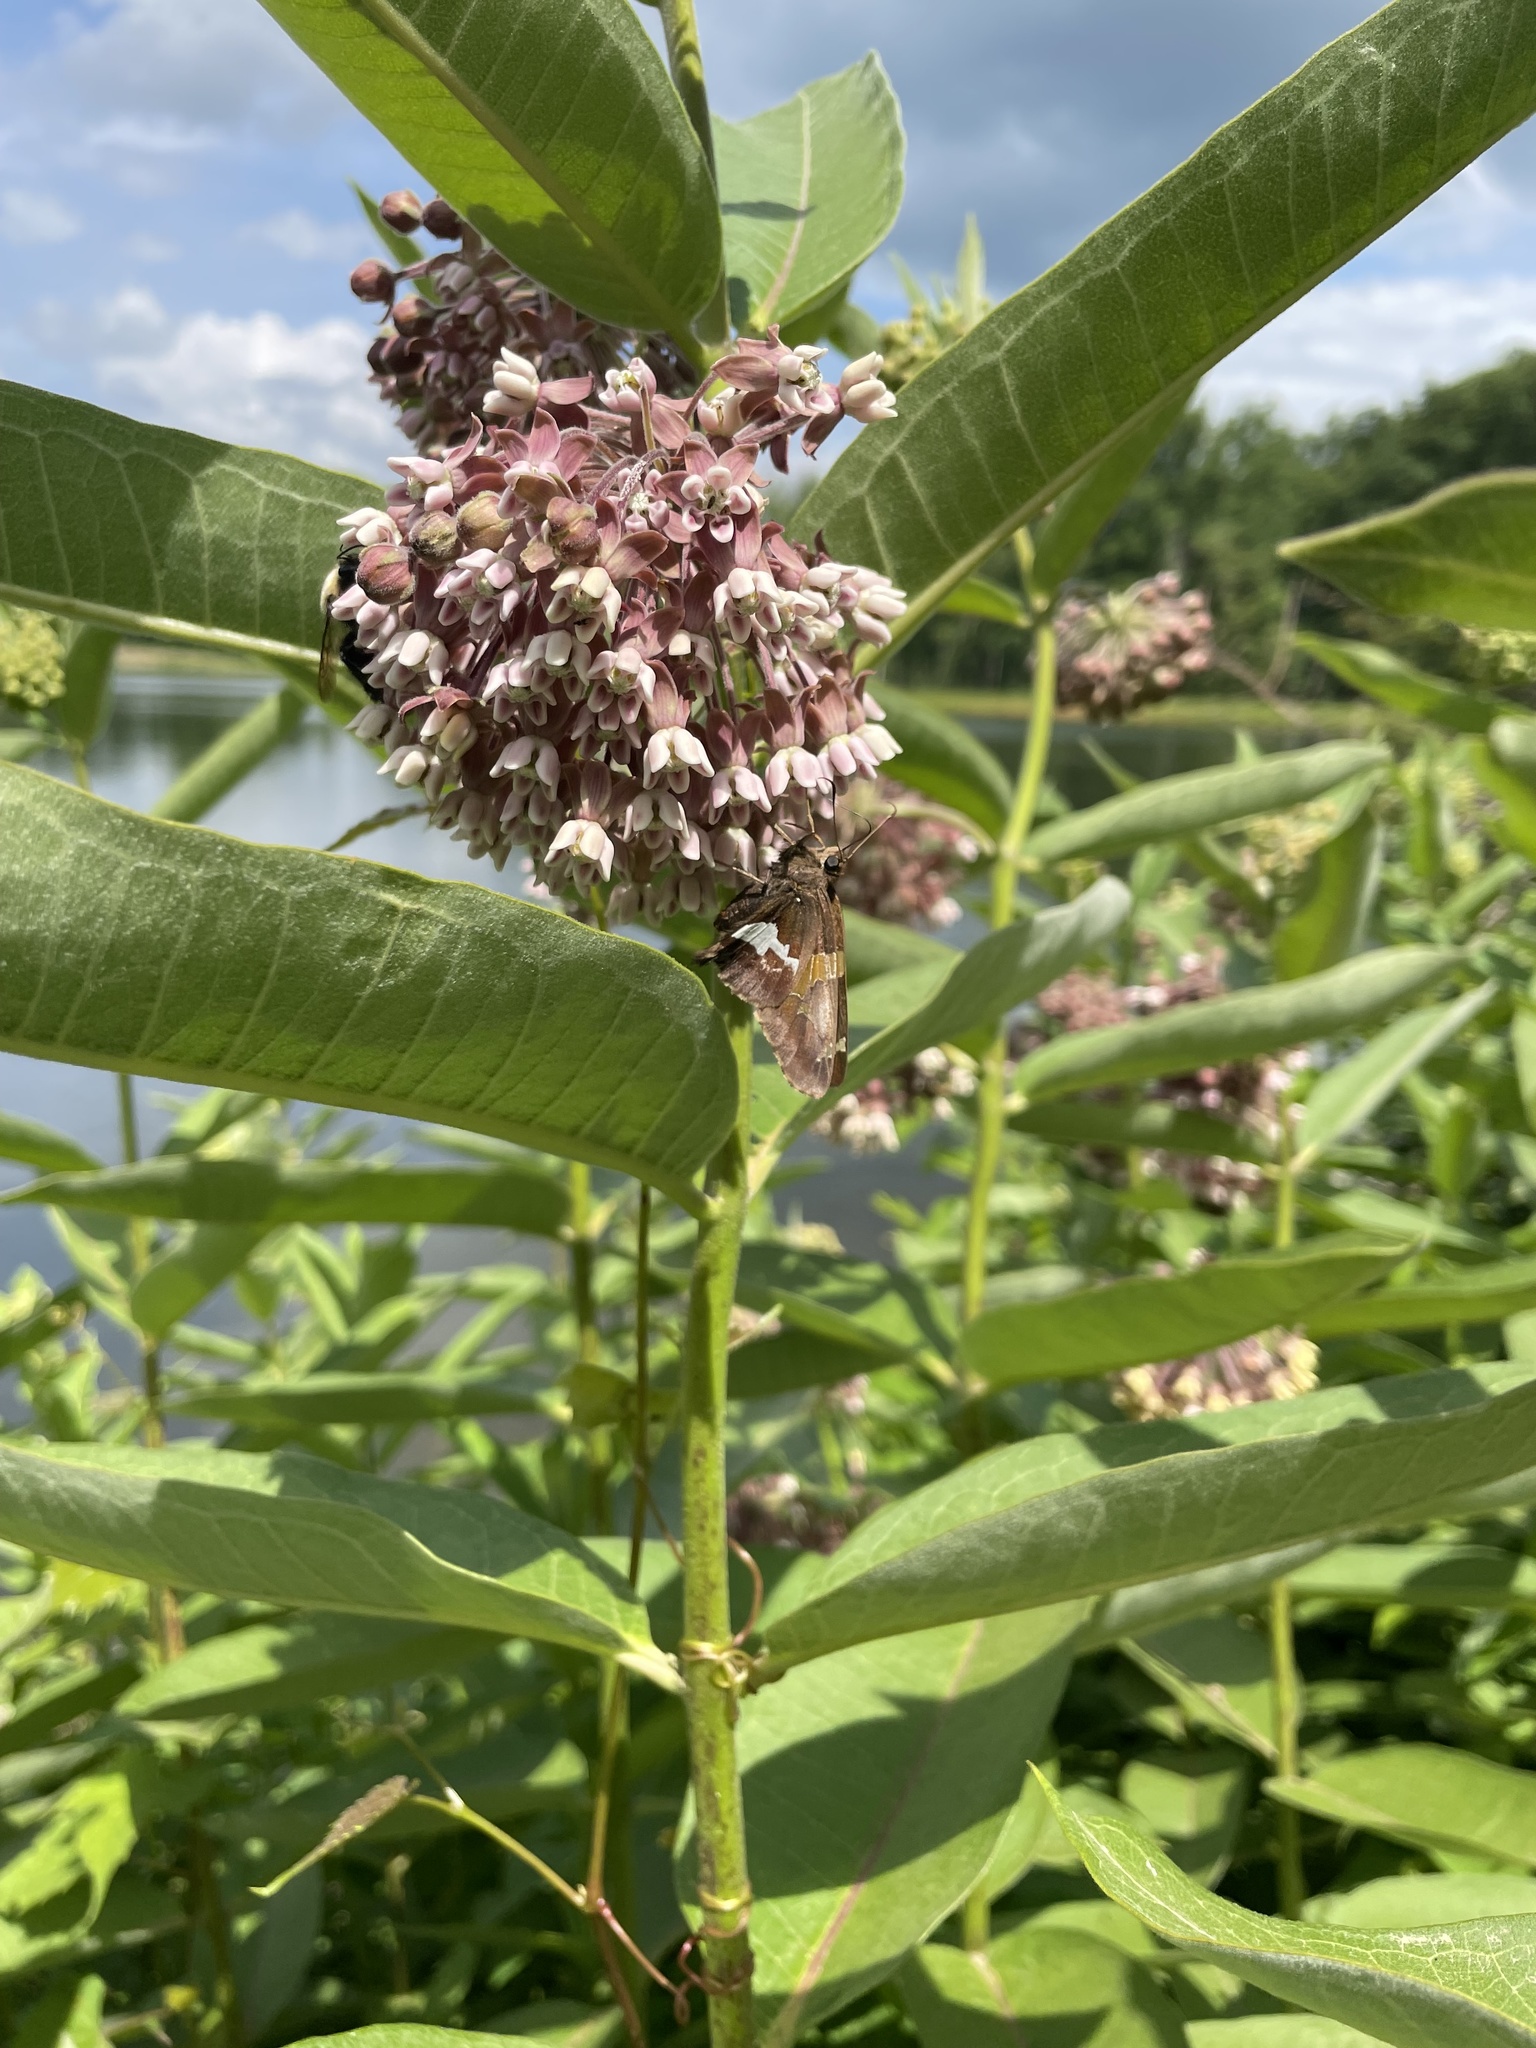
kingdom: Animalia
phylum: Arthropoda
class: Insecta
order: Lepidoptera
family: Hesperiidae
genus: Epargyreus
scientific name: Epargyreus clarus
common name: Silver-spotted skipper
